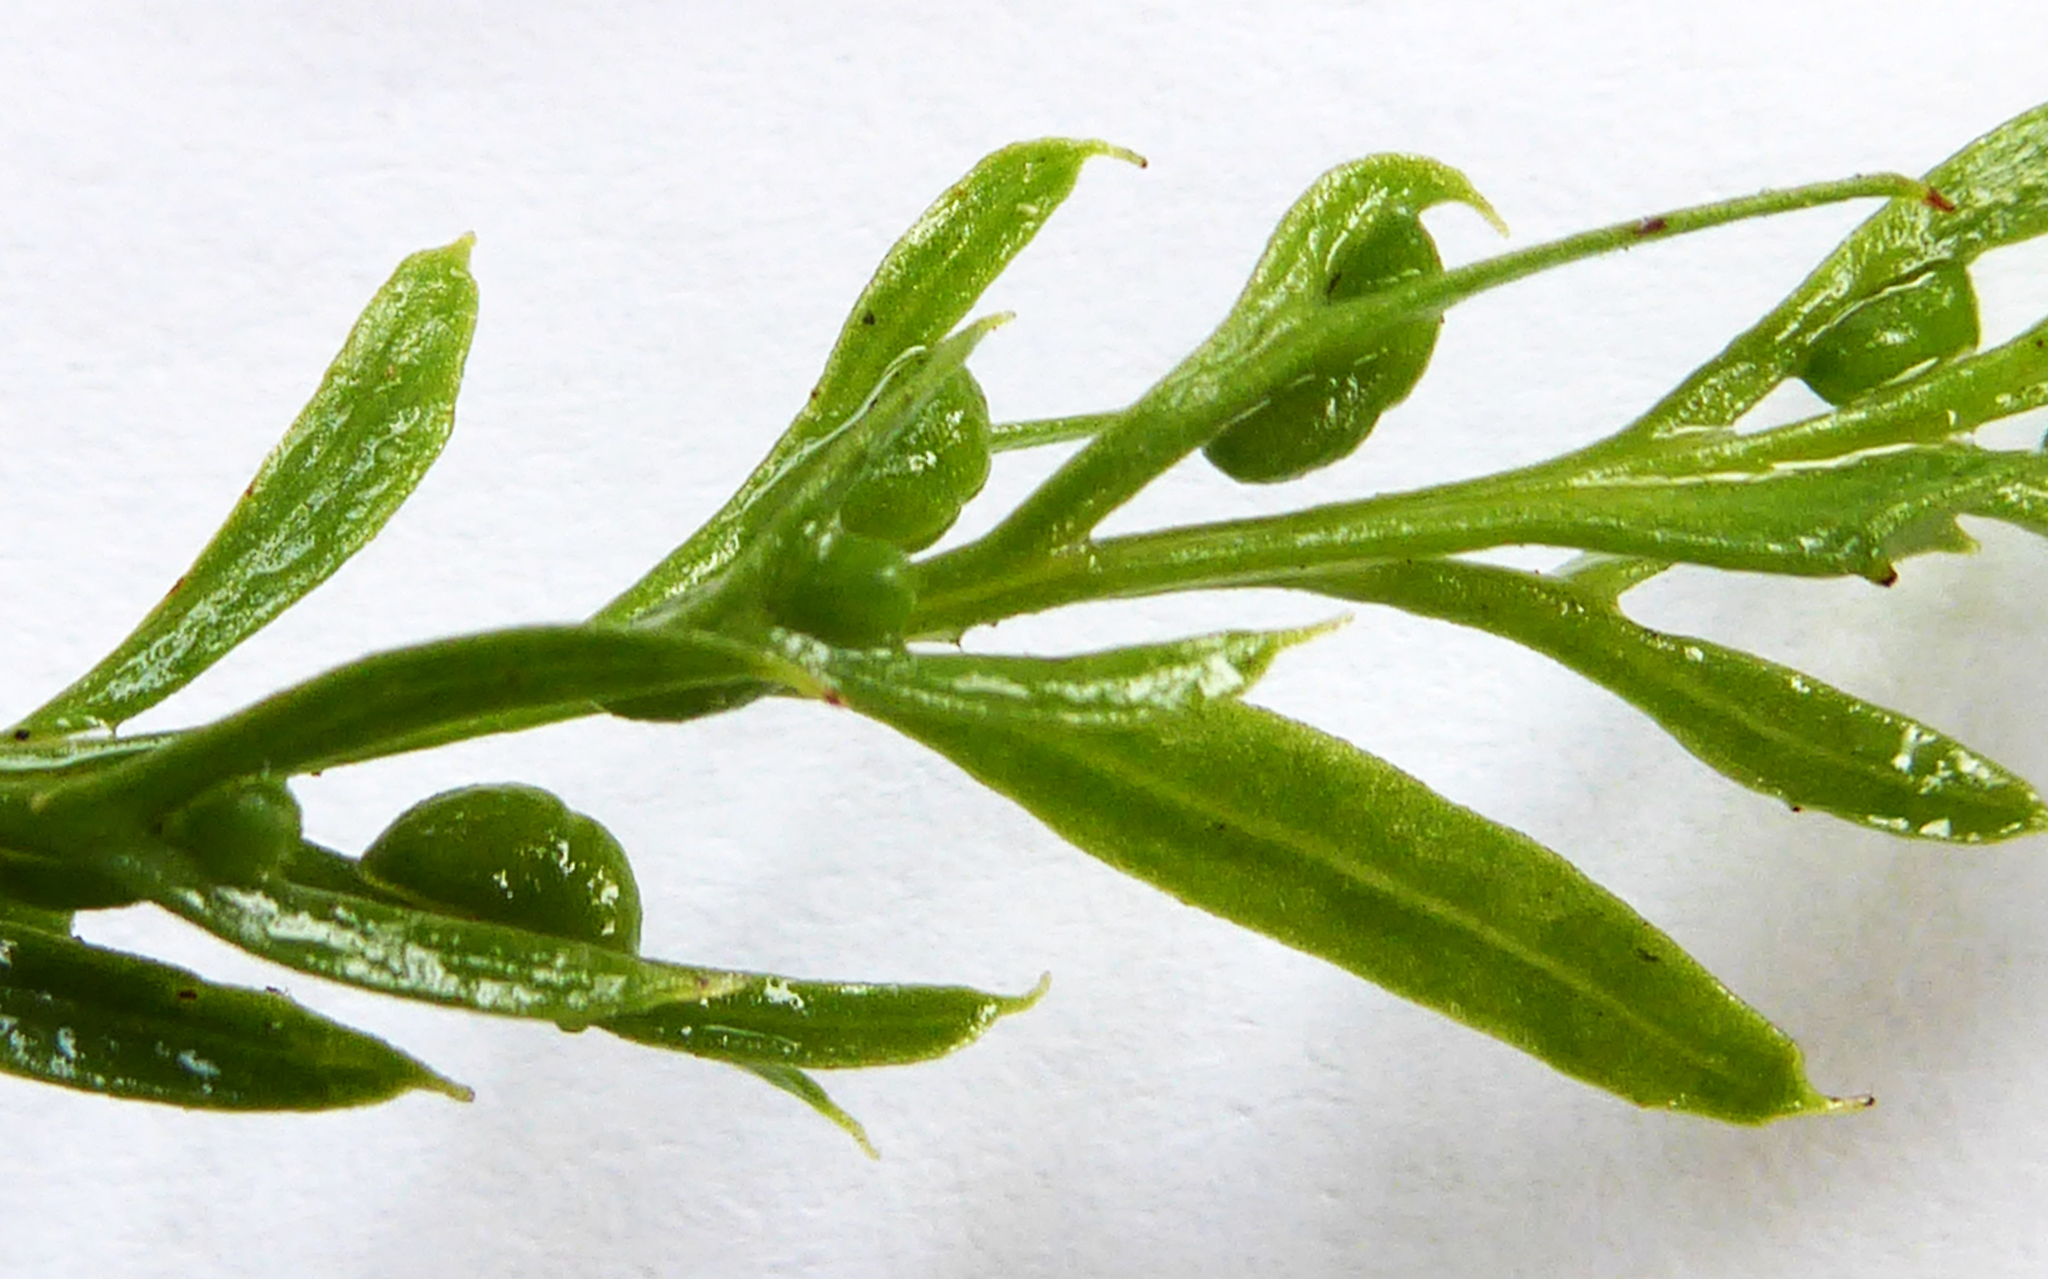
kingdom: Plantae
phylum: Tracheophyta
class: Polypodiopsida
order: Psilotales
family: Psilotaceae
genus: Tmesipteris
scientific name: Tmesipteris elongata
